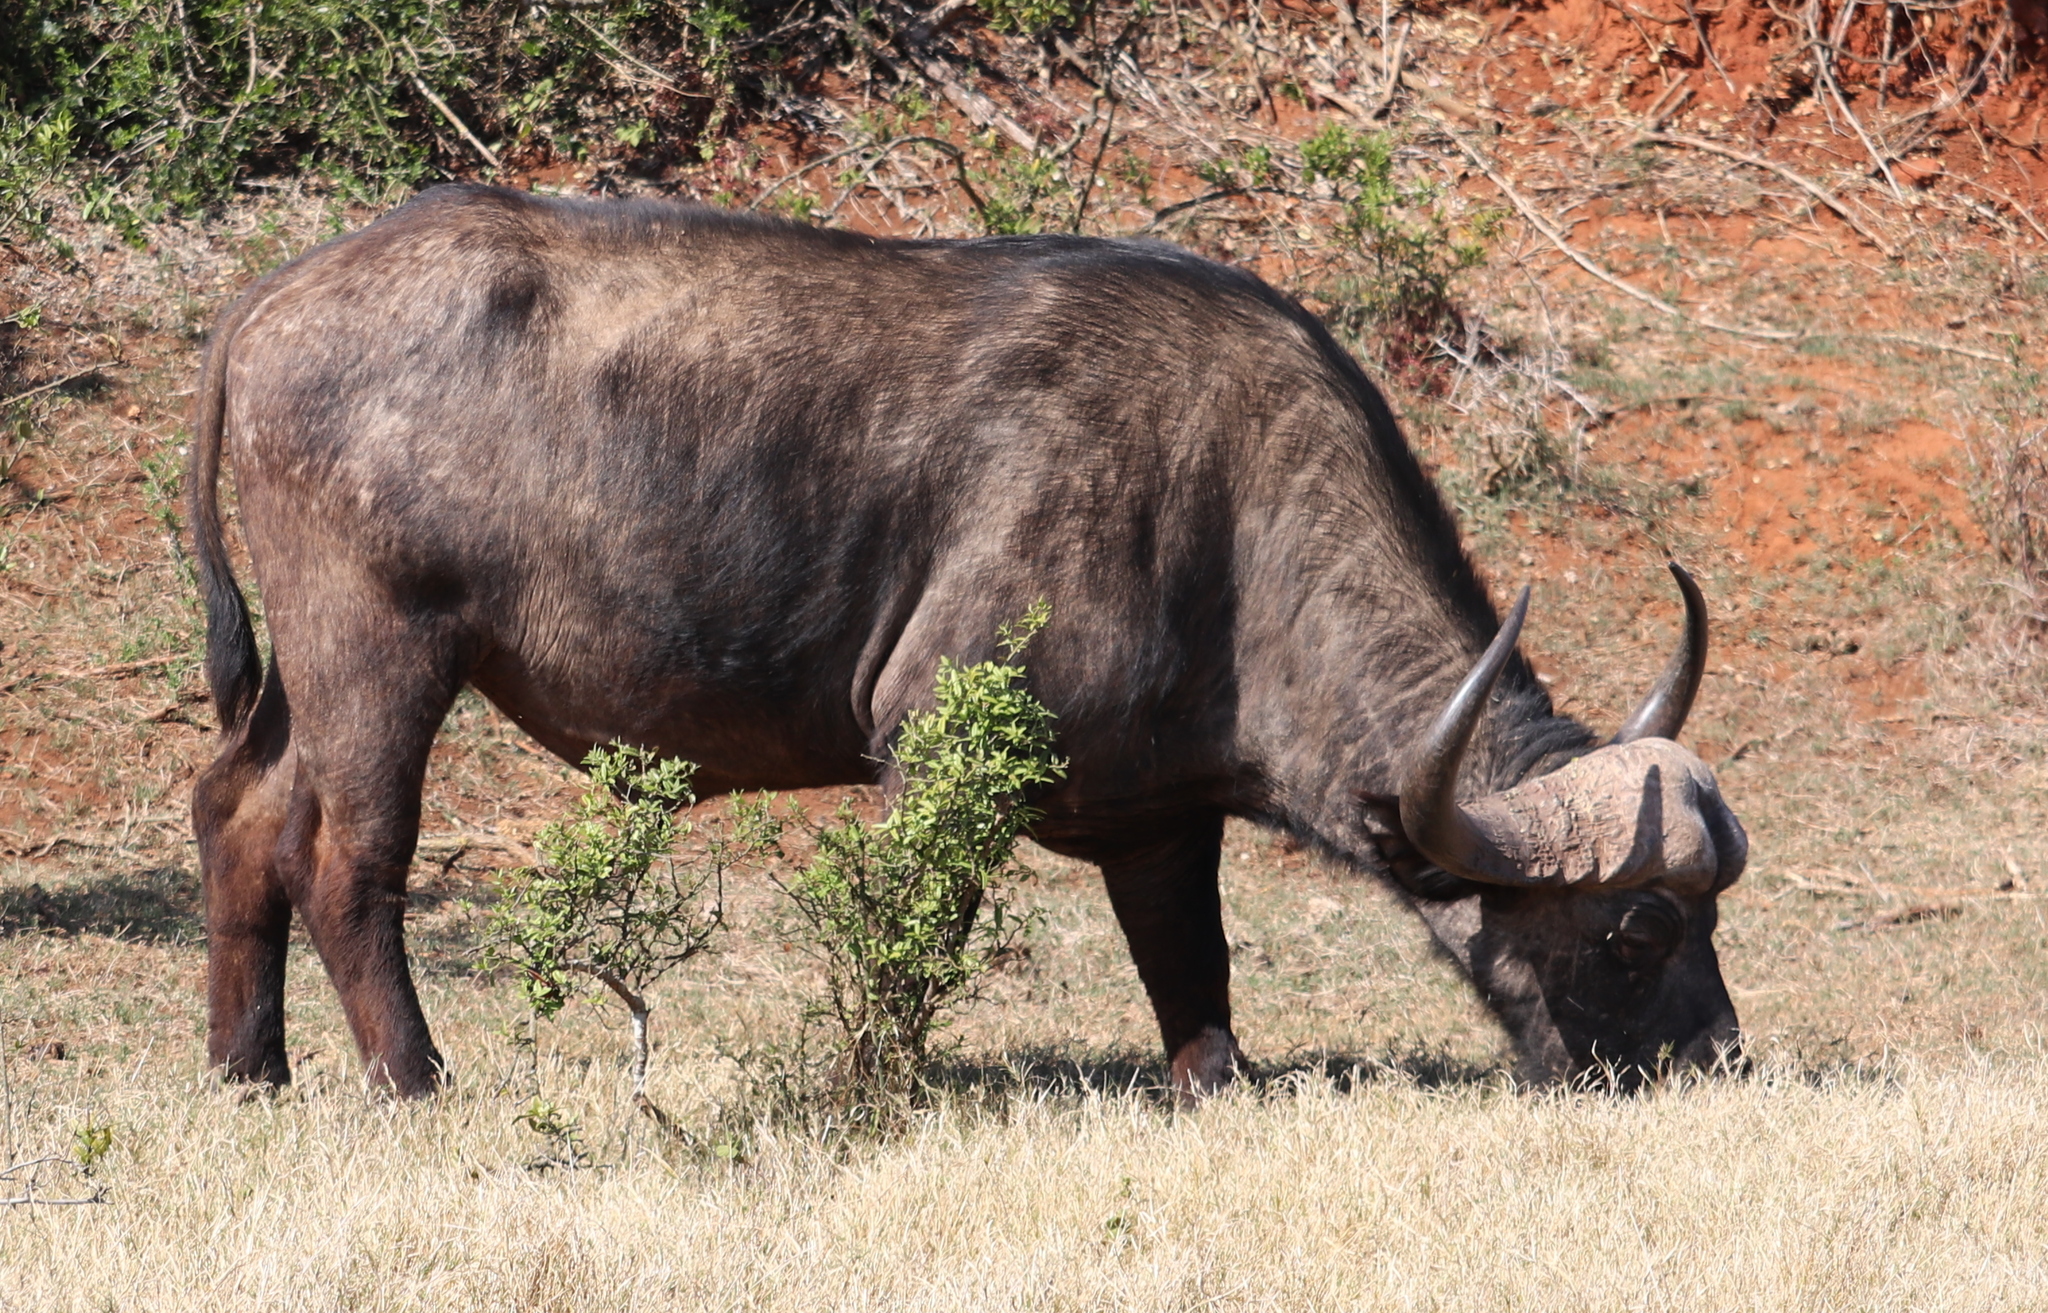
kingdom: Animalia
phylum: Chordata
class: Mammalia
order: Artiodactyla
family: Bovidae
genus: Syncerus
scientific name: Syncerus caffer
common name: African buffalo
